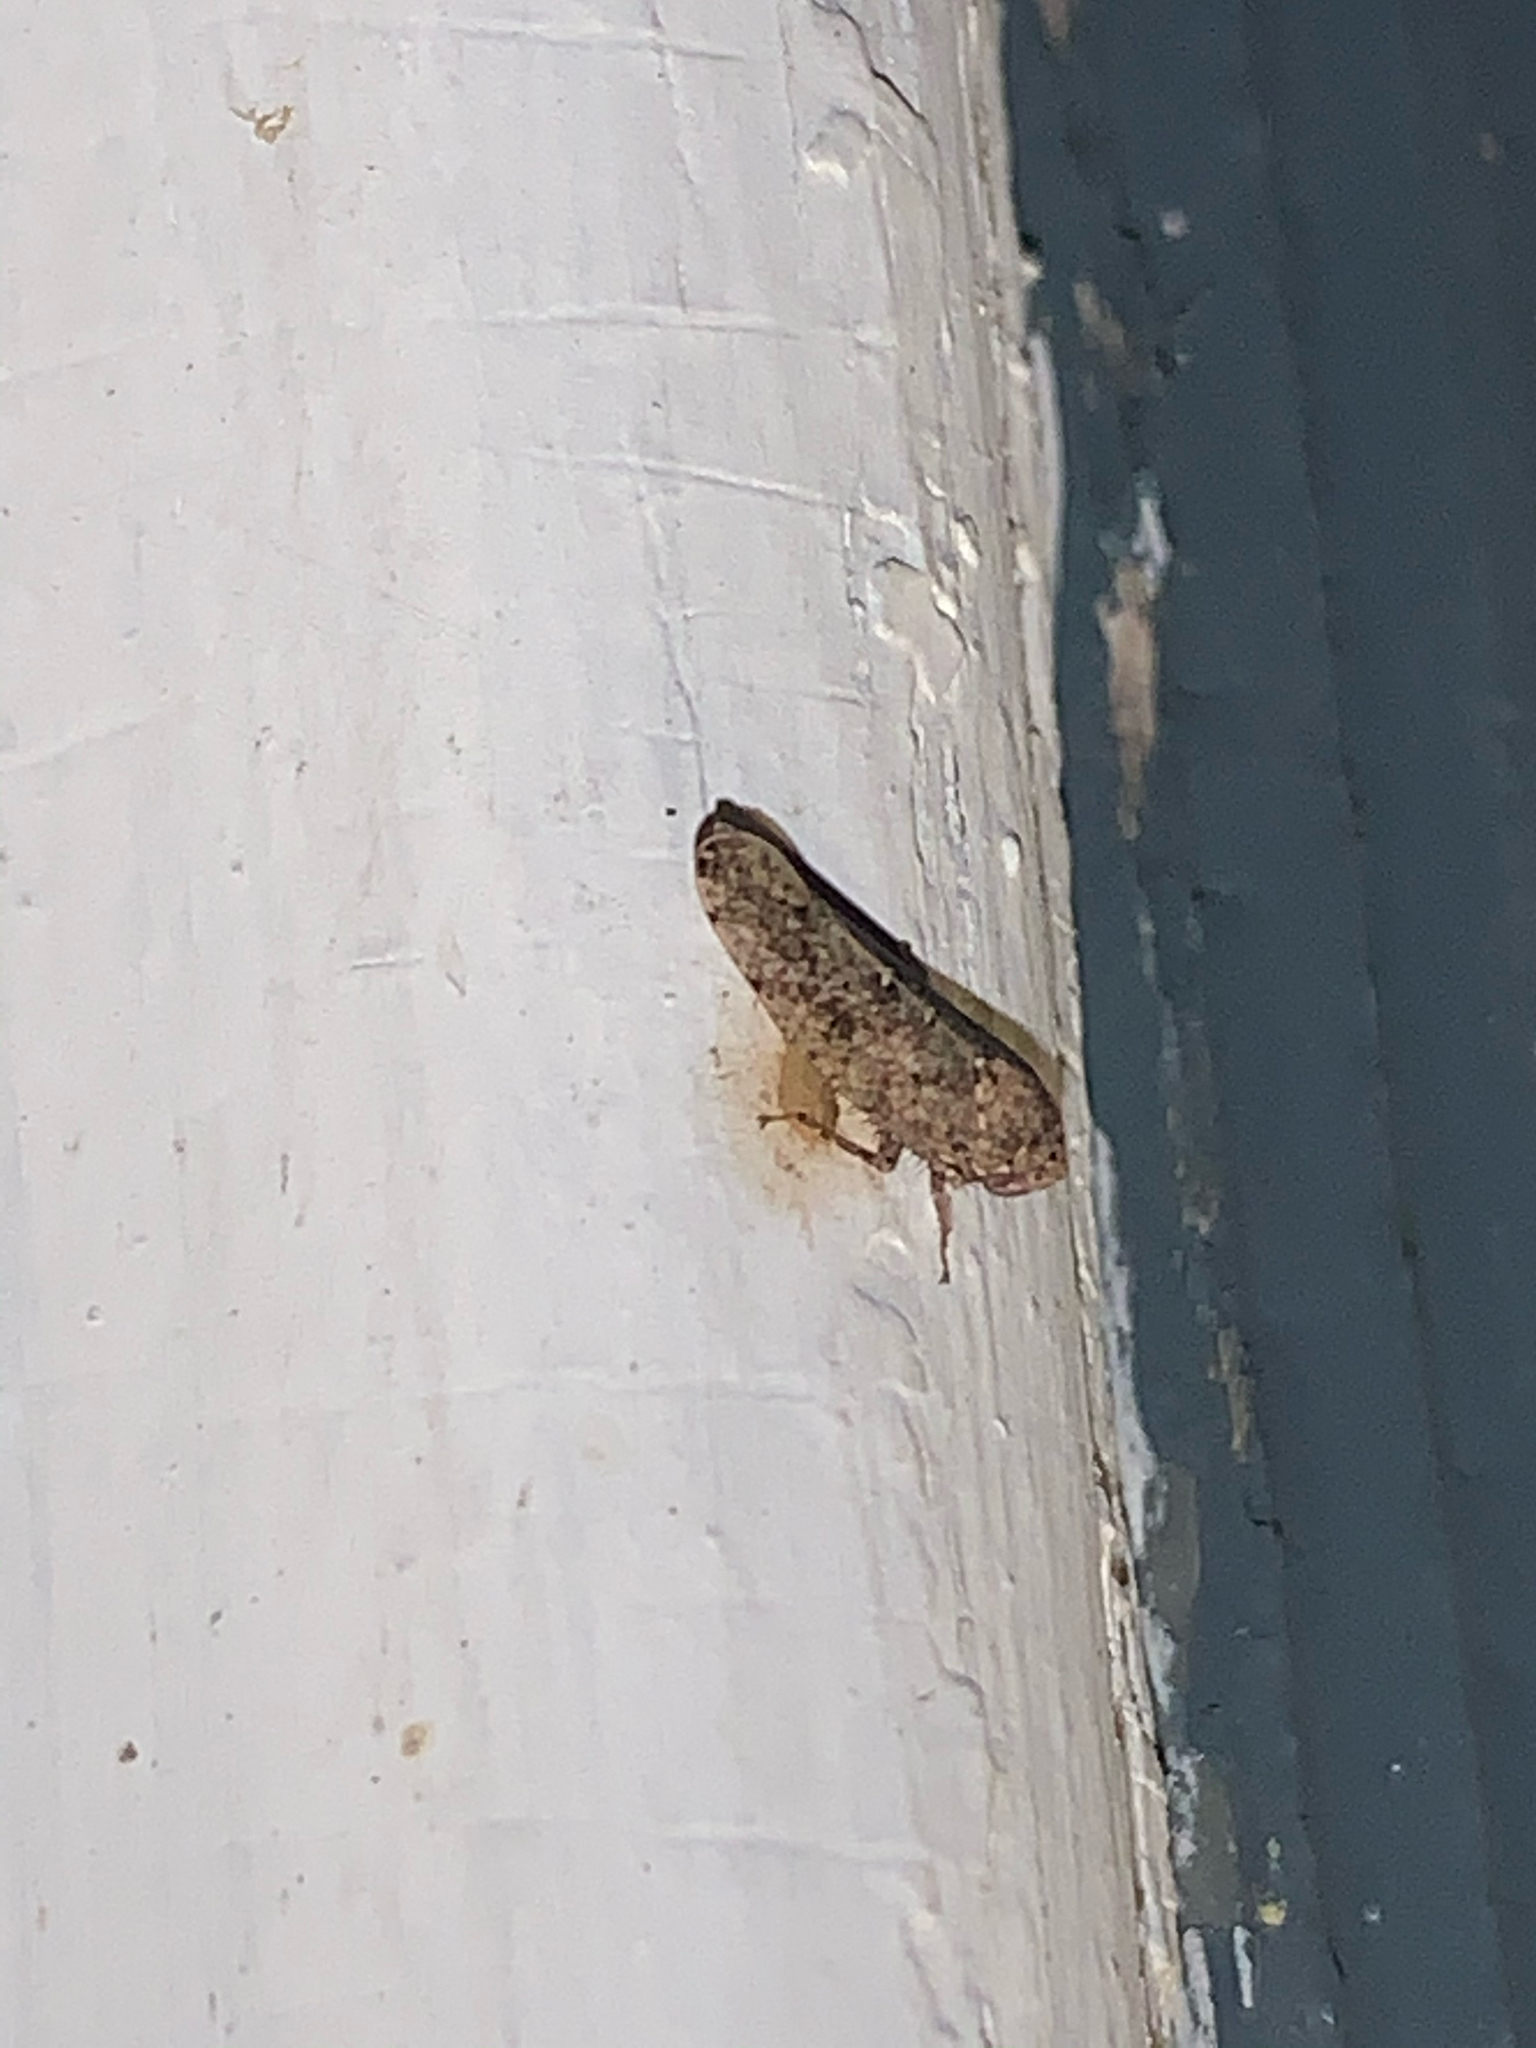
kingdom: Animalia
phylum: Arthropoda
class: Insecta
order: Hemiptera
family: Cicadellidae
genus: Paraphlepsius
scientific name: Paraphlepsius
